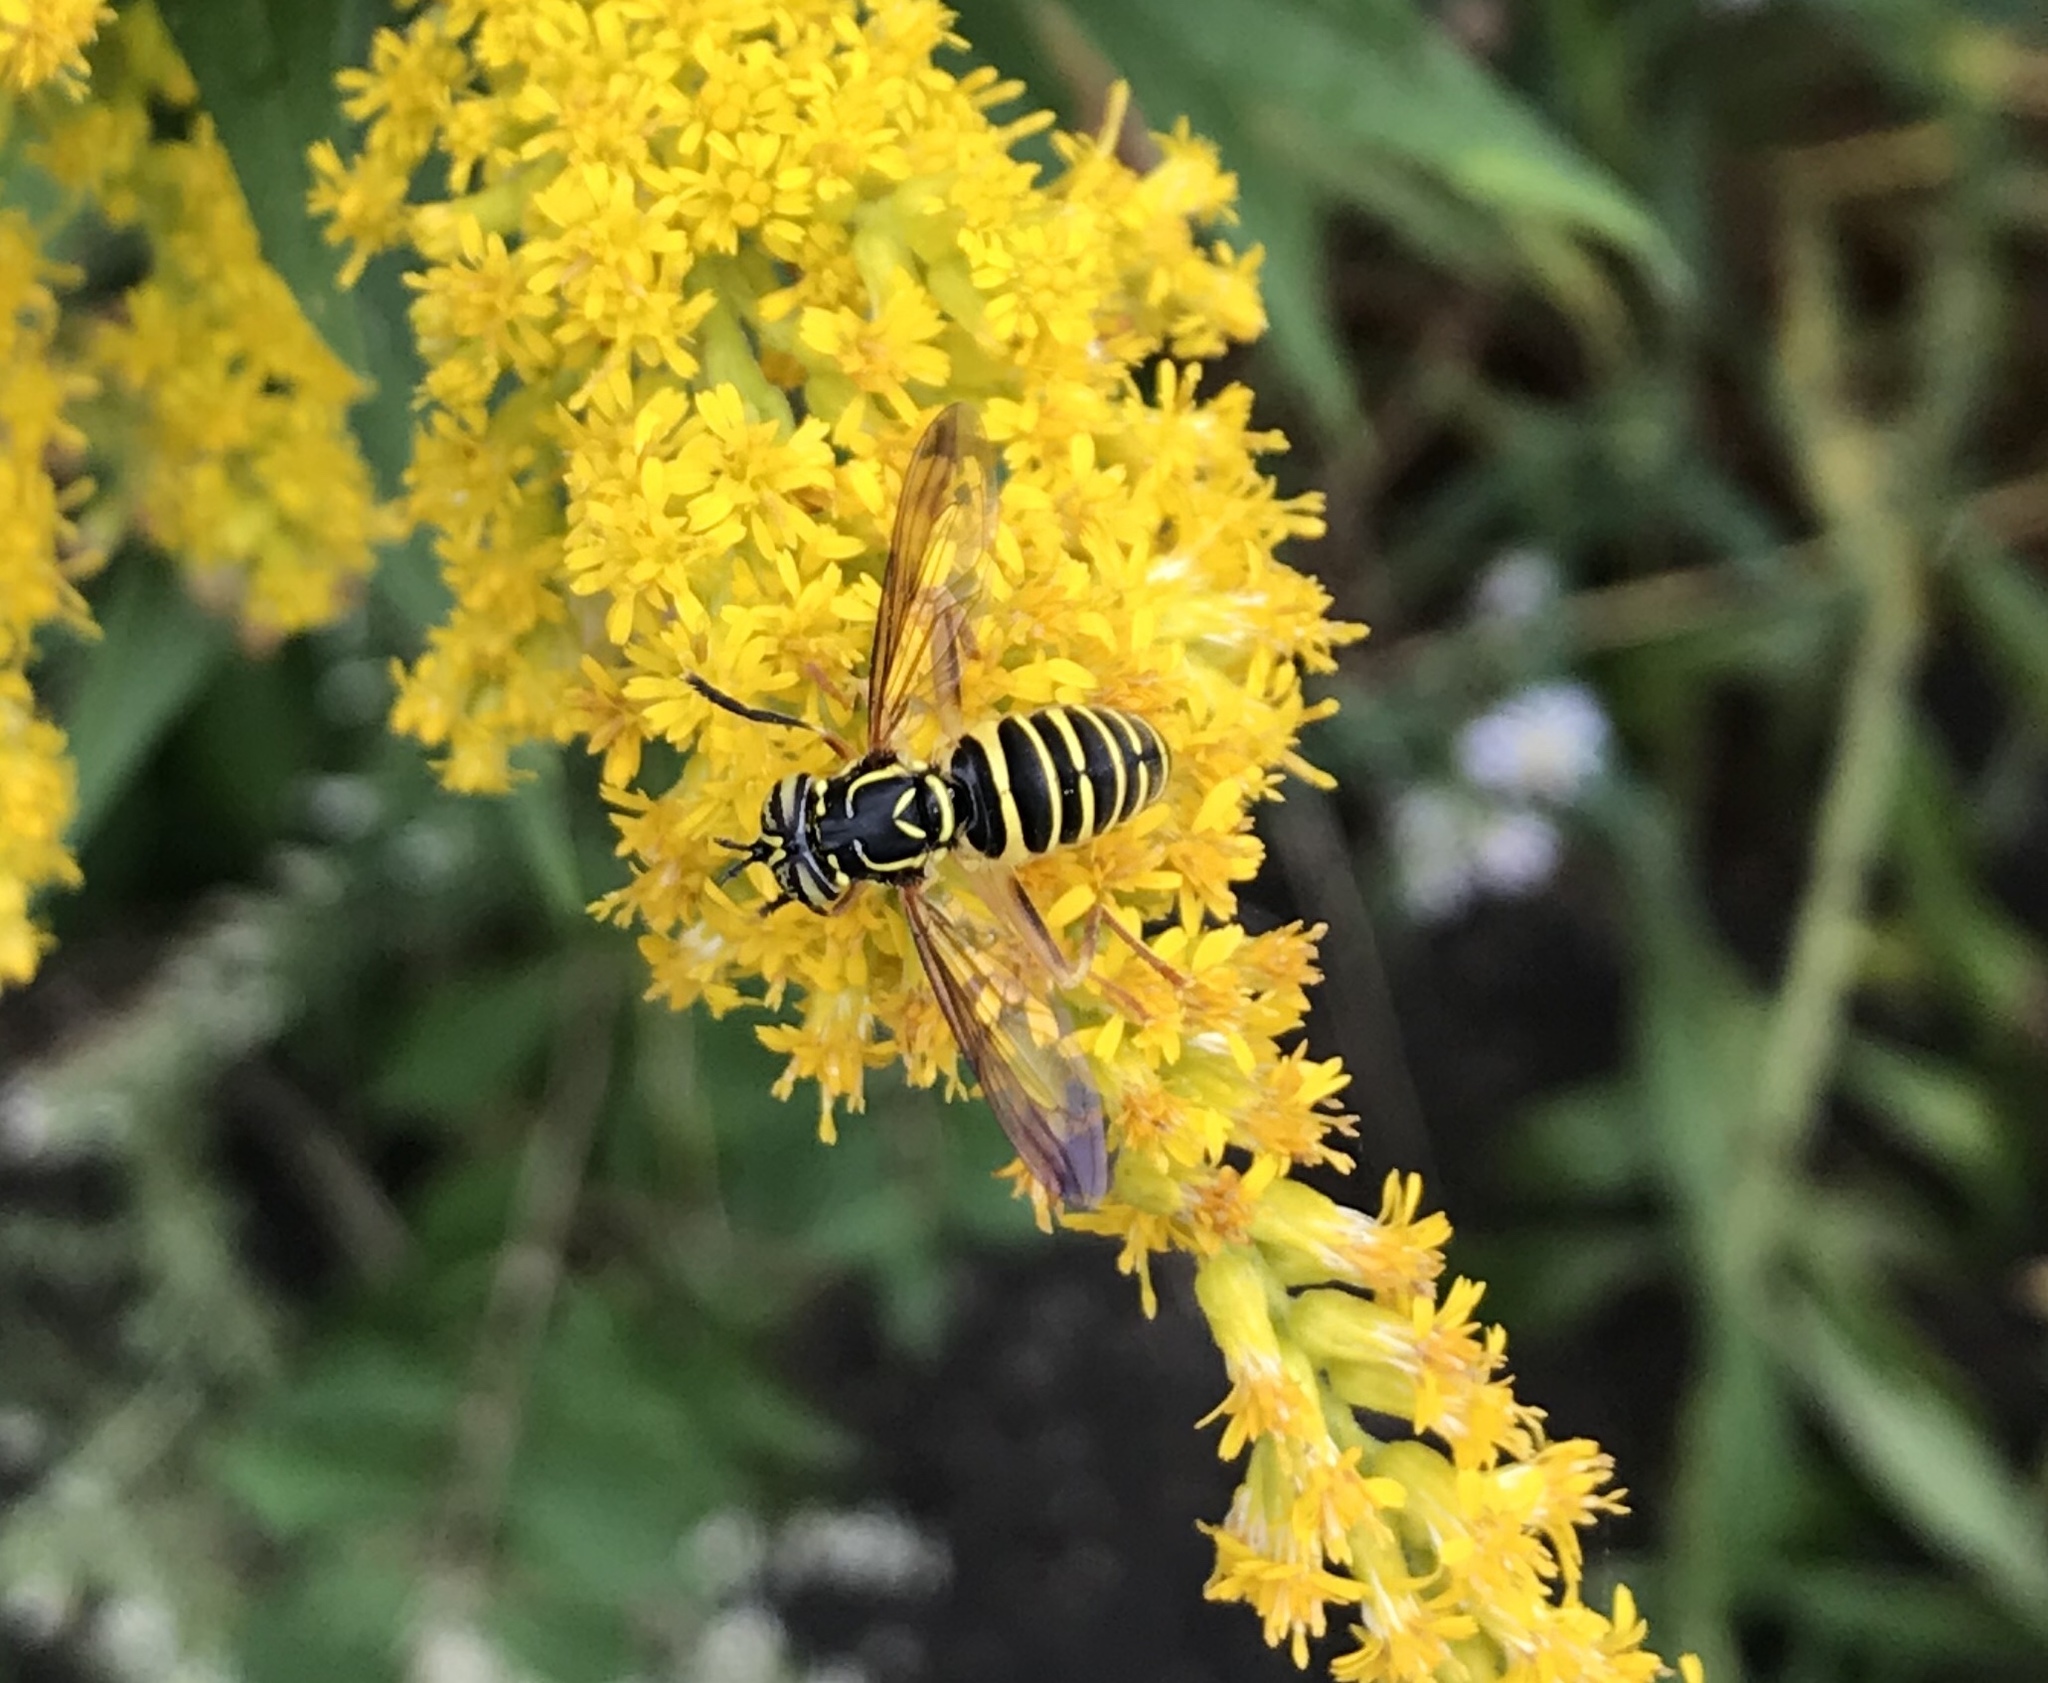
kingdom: Animalia
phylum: Arthropoda
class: Insecta
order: Diptera
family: Syrphidae
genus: Spilomyia
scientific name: Spilomyia longicornis
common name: Eastern hornet fly
